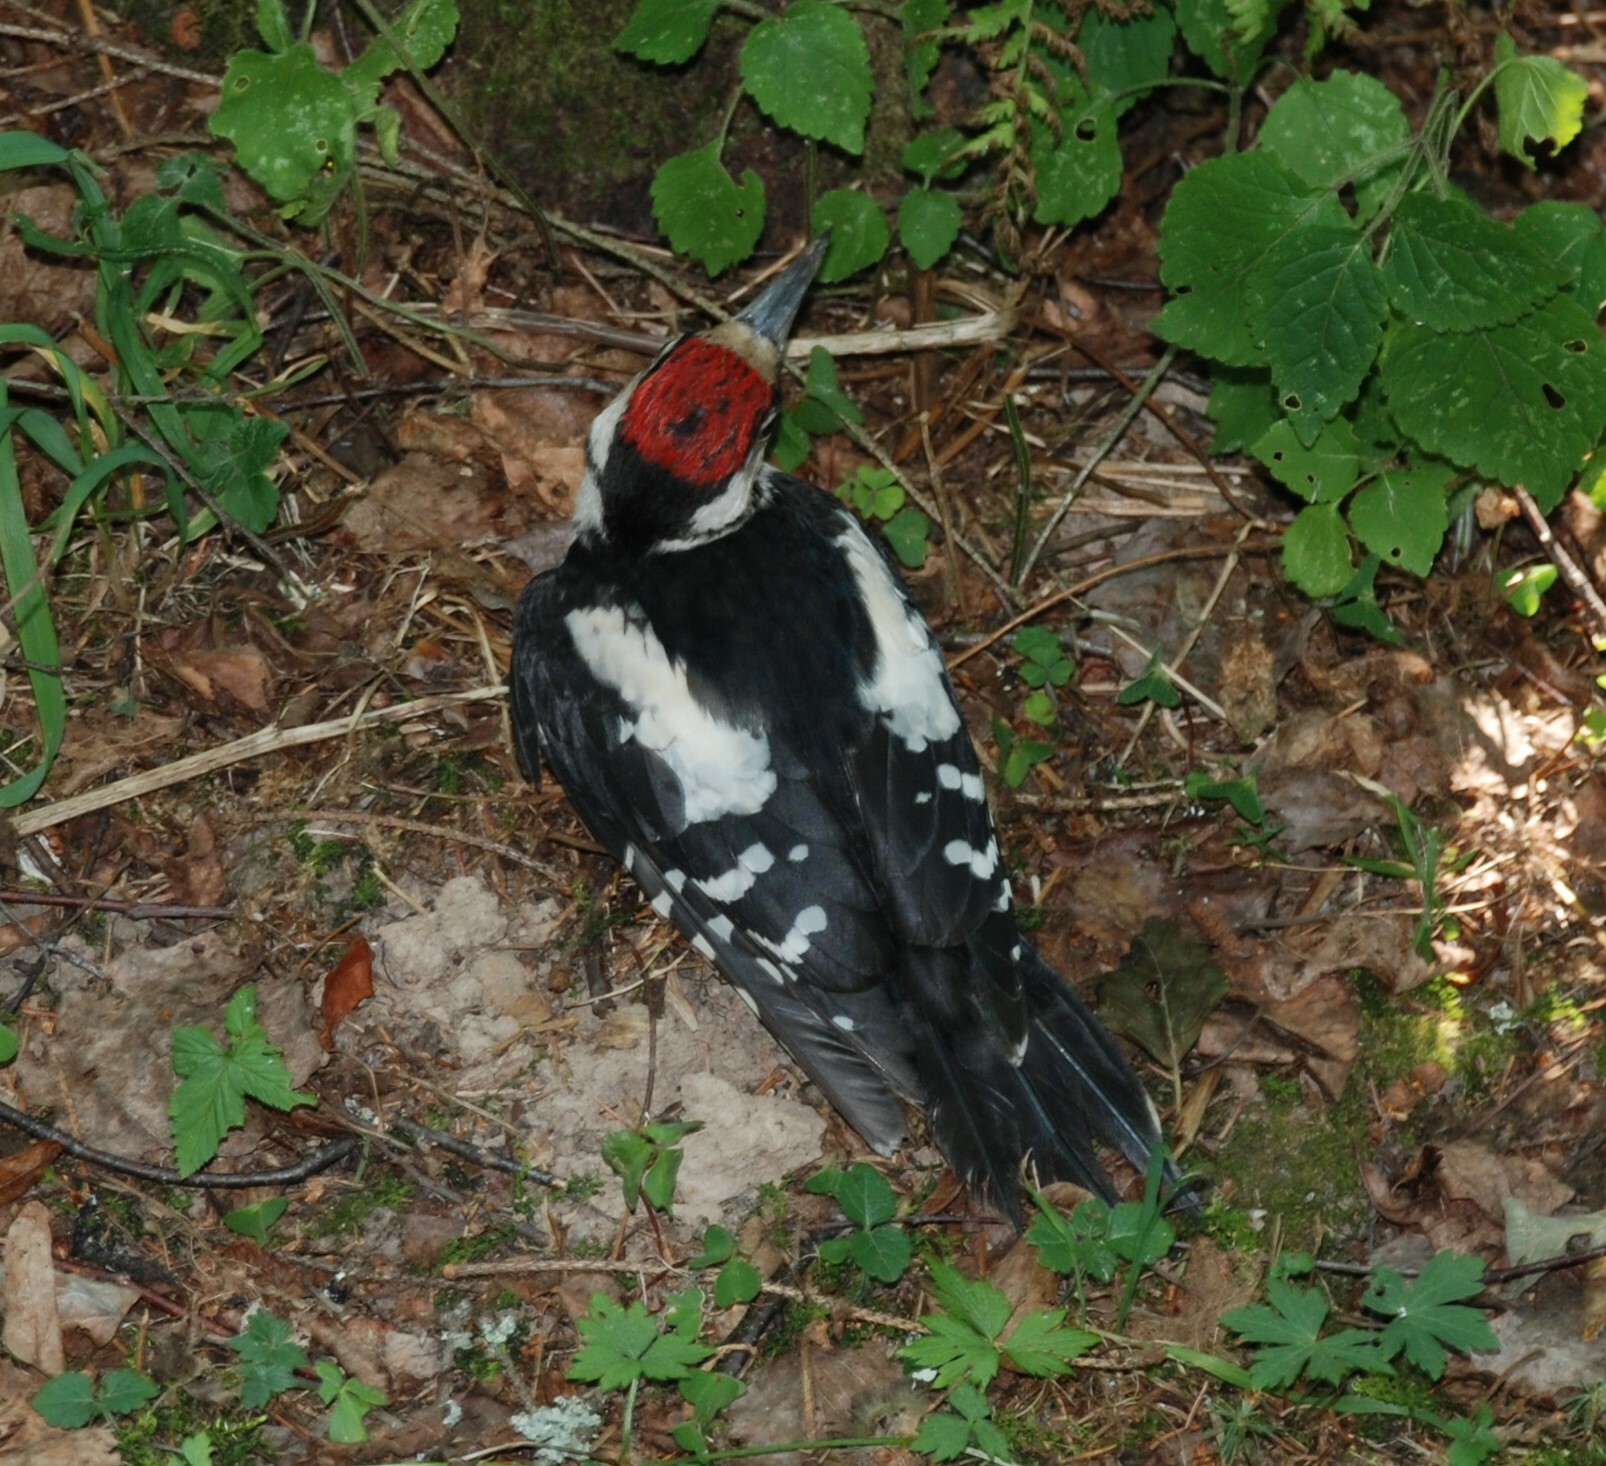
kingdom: Animalia
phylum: Chordata
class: Aves
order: Piciformes
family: Picidae
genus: Dendrocopos
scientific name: Dendrocopos major
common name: Great spotted woodpecker
